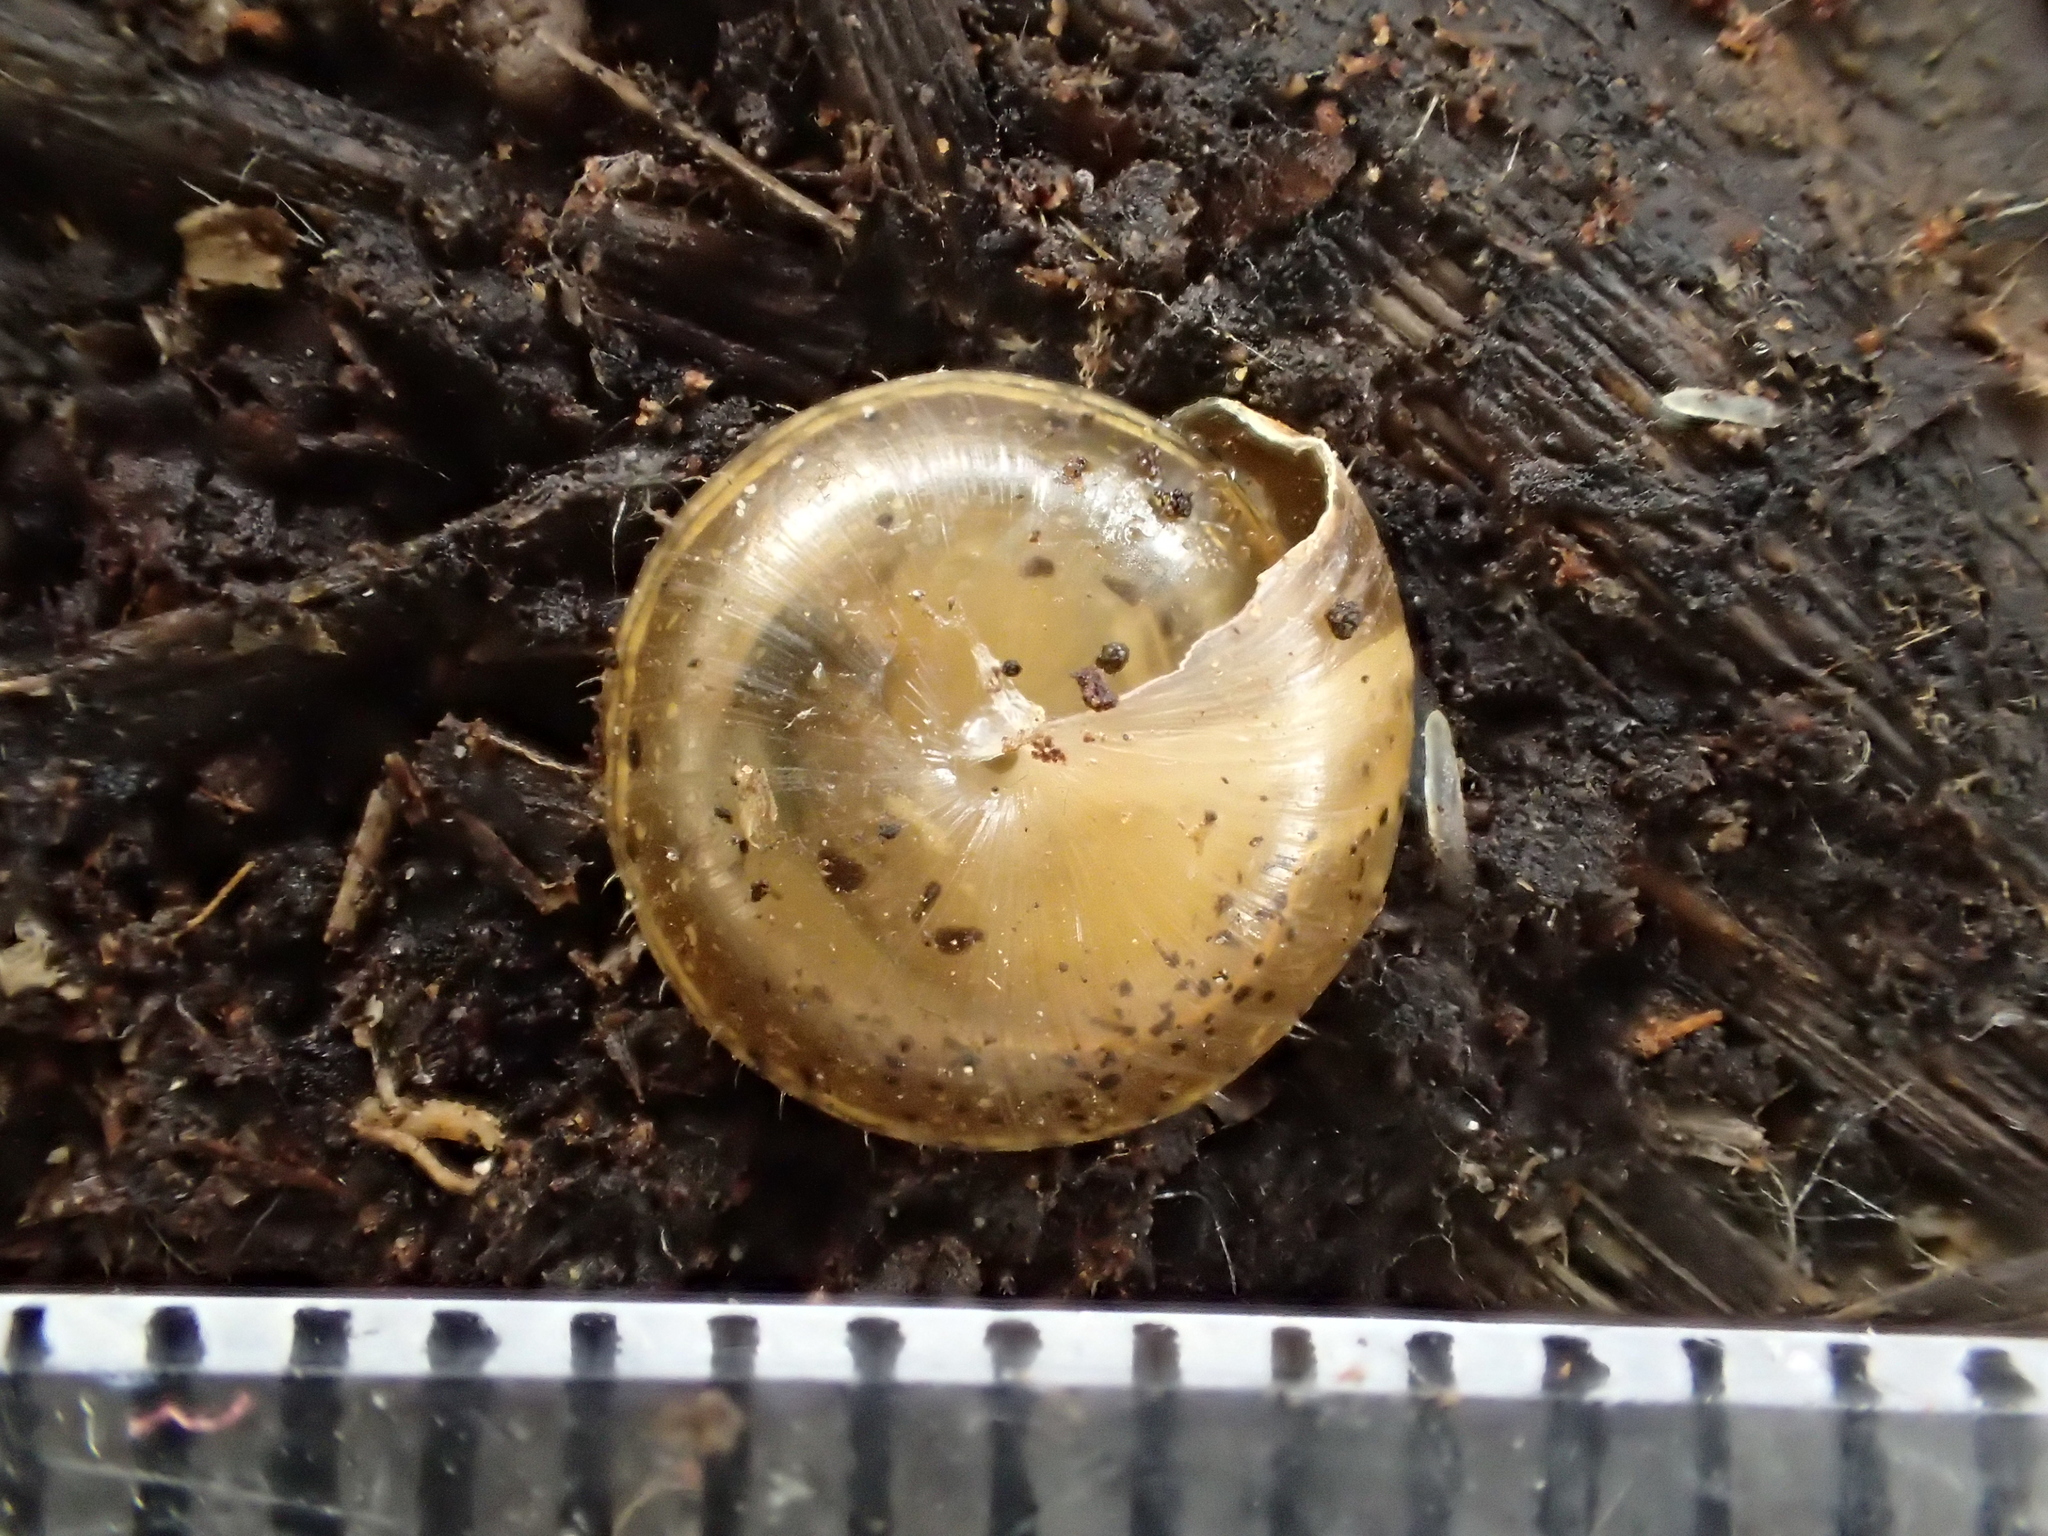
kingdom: Animalia
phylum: Mollusca
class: Gastropoda
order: Stylommatophora
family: Hygromiidae
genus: Edentiella
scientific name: Edentiella edentula
